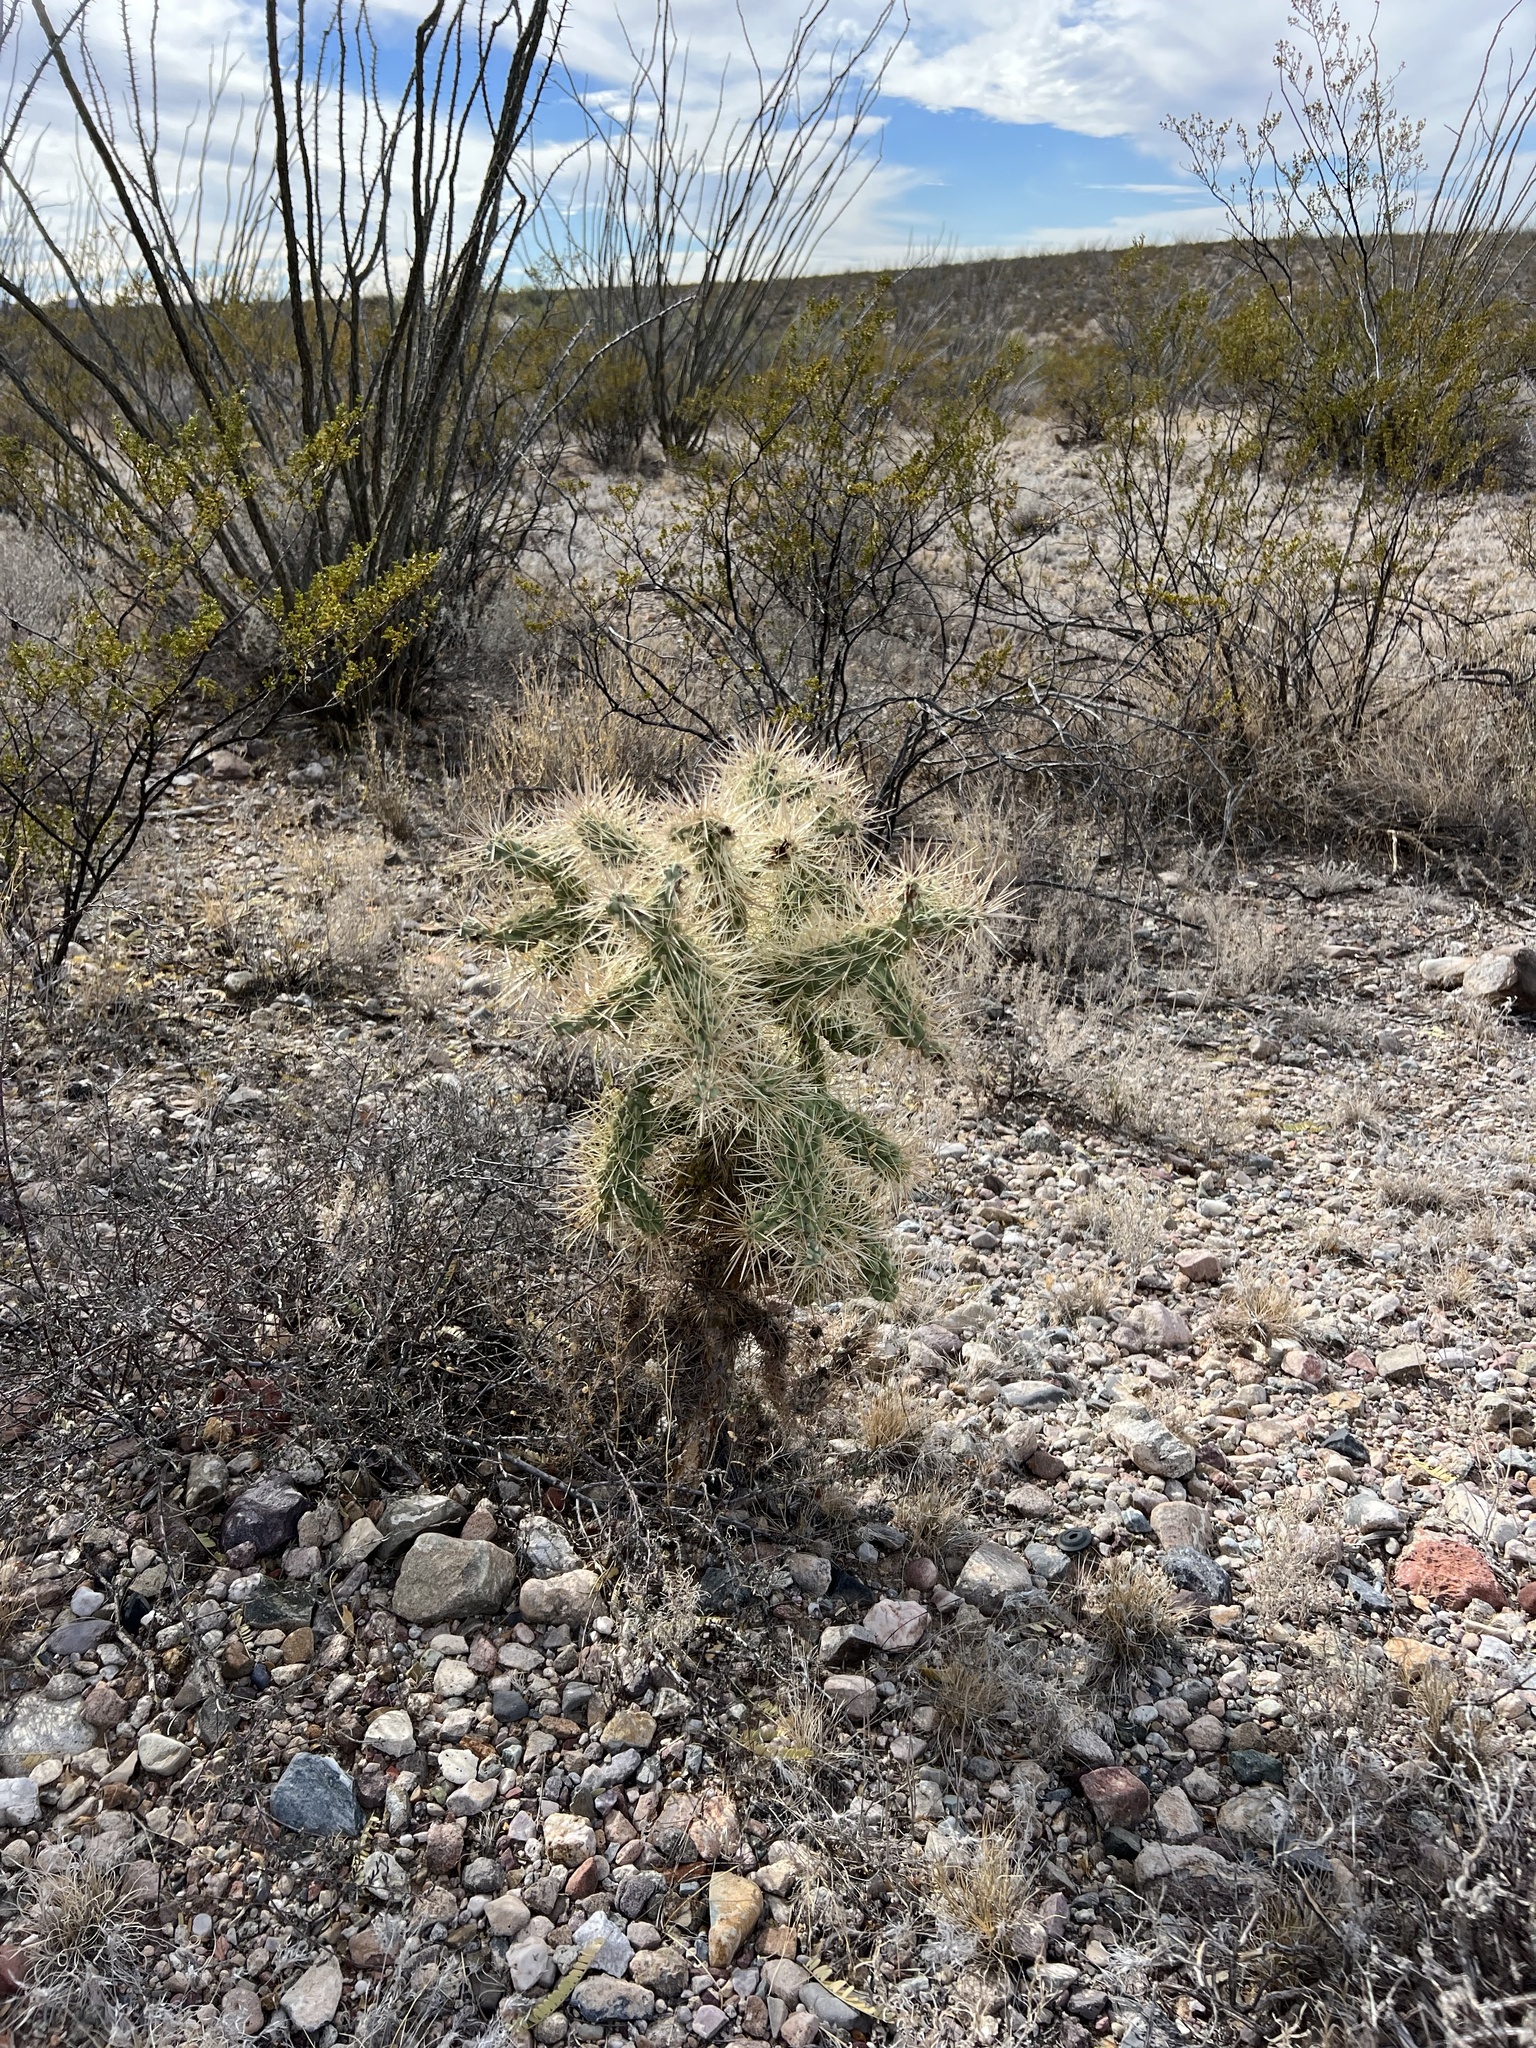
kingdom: Plantae
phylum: Tracheophyta
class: Magnoliopsida
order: Caryophyllales
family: Cactaceae
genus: Cylindropuntia
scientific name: Cylindropuntia fulgida
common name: Jumping cholla
